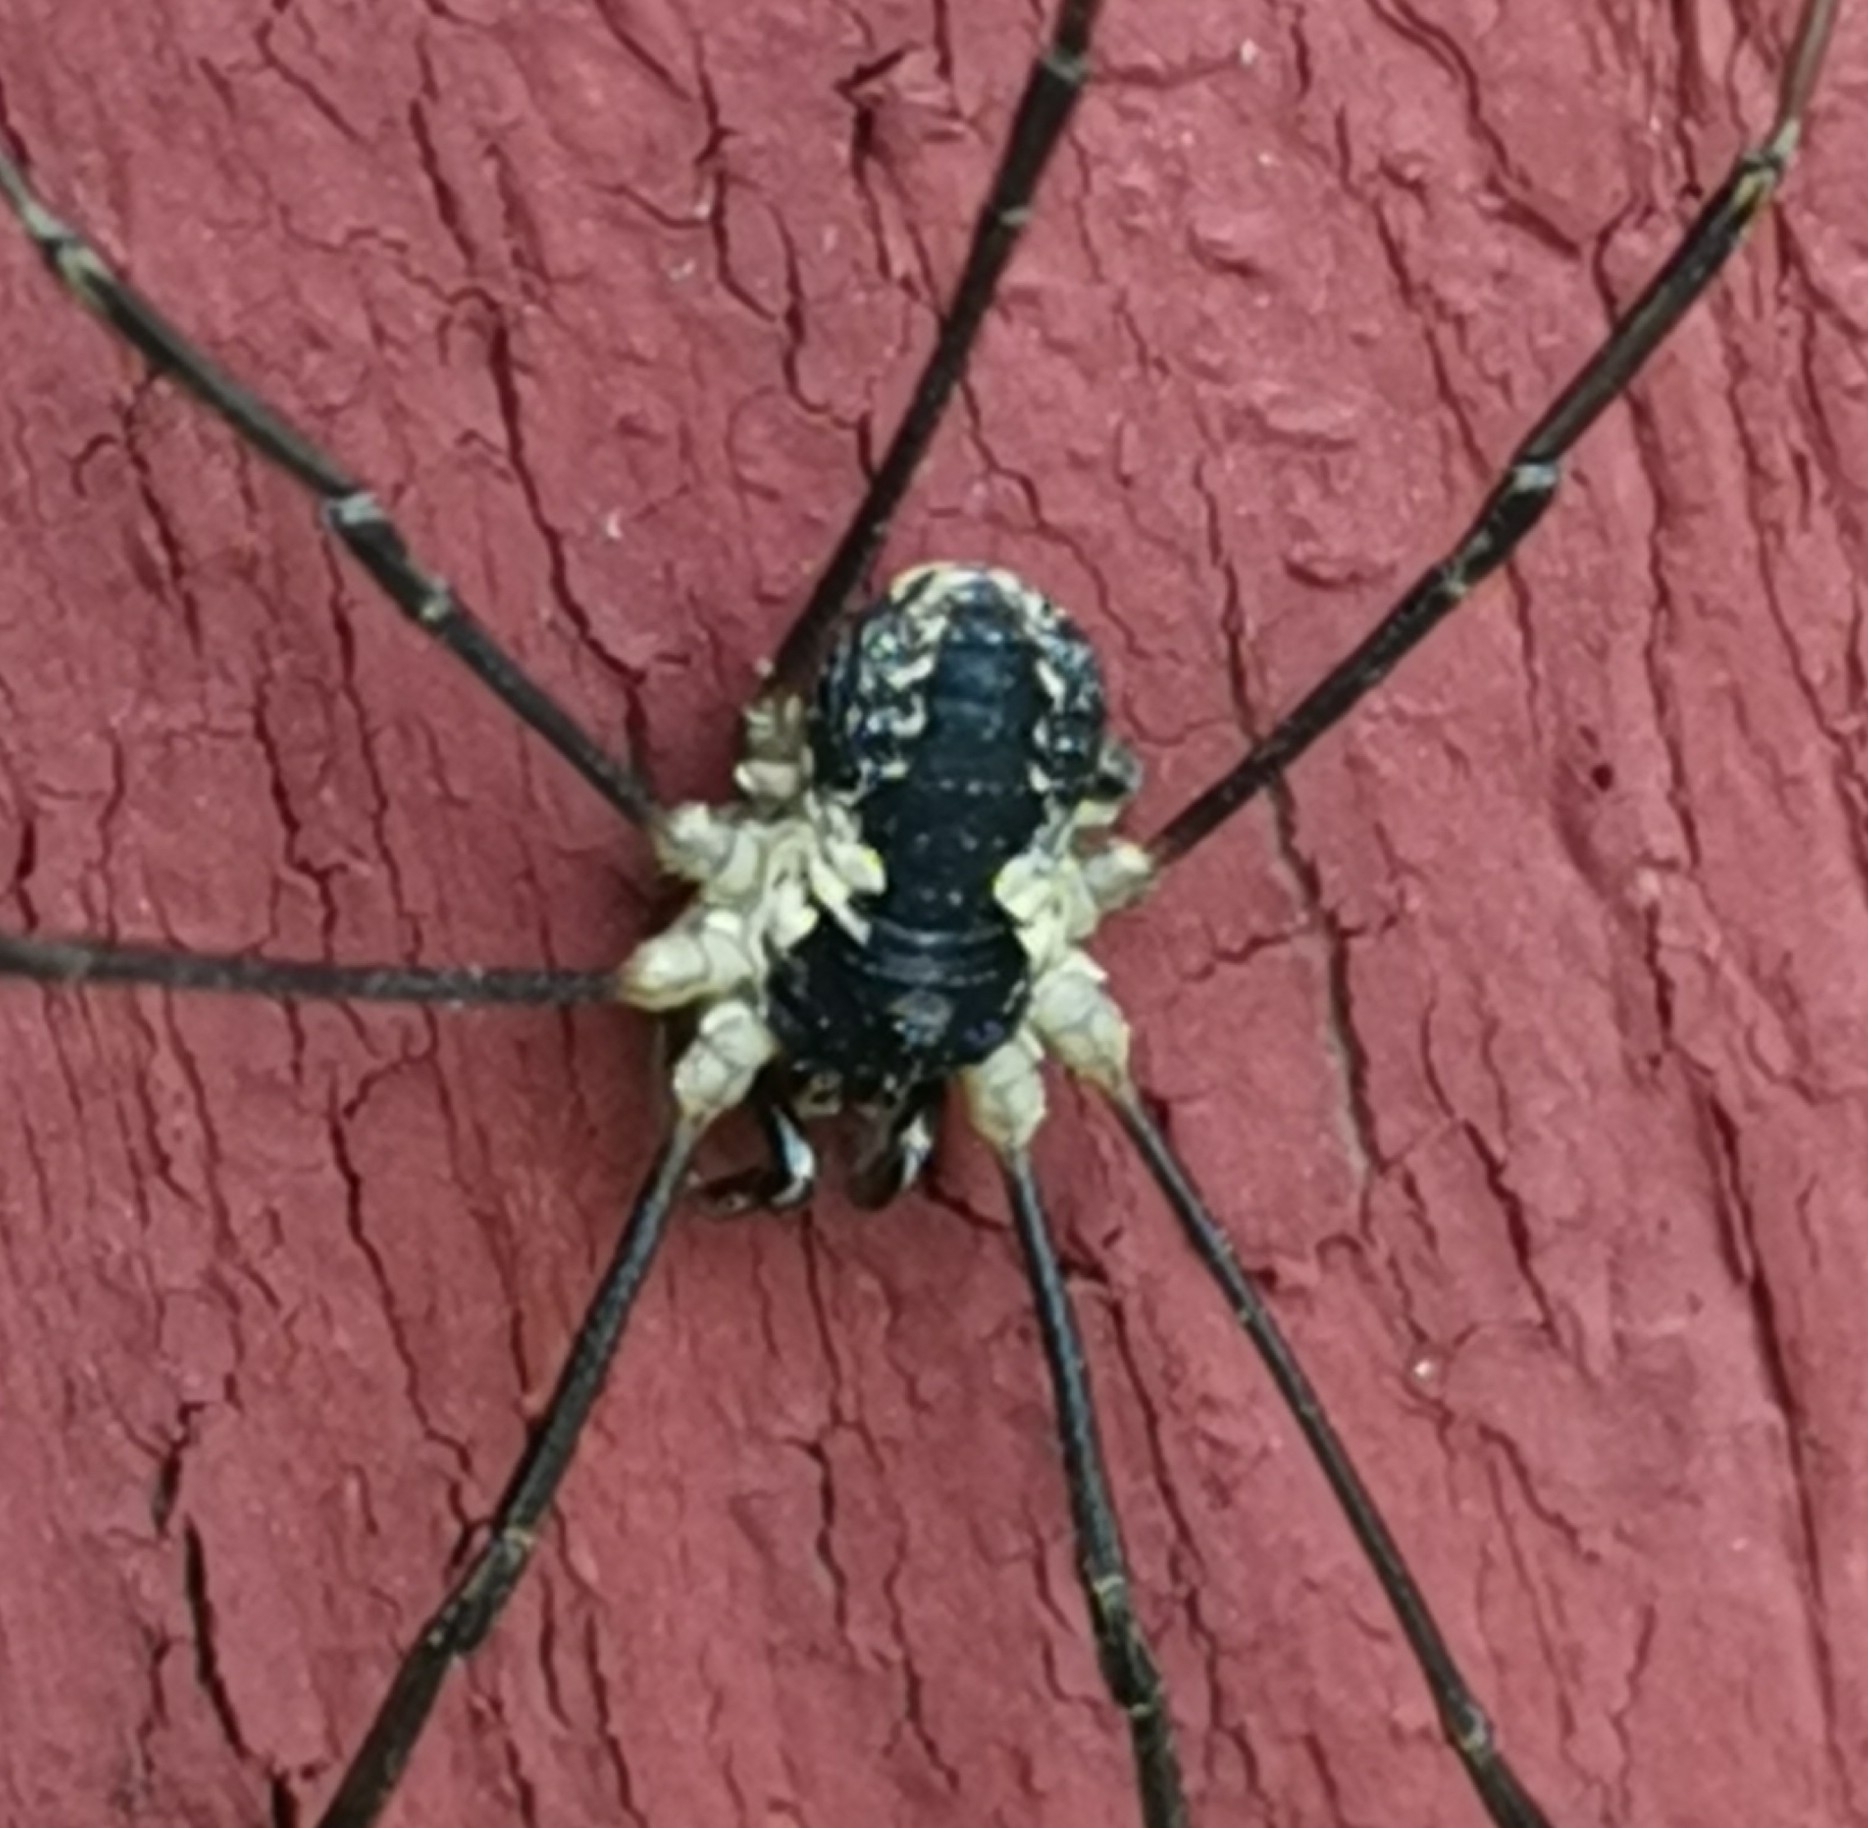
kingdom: Animalia
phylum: Arthropoda
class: Arachnida
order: Opiliones
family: Phalangiidae
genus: Mitopus
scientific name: Mitopus morio
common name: Saddleback harvestman
